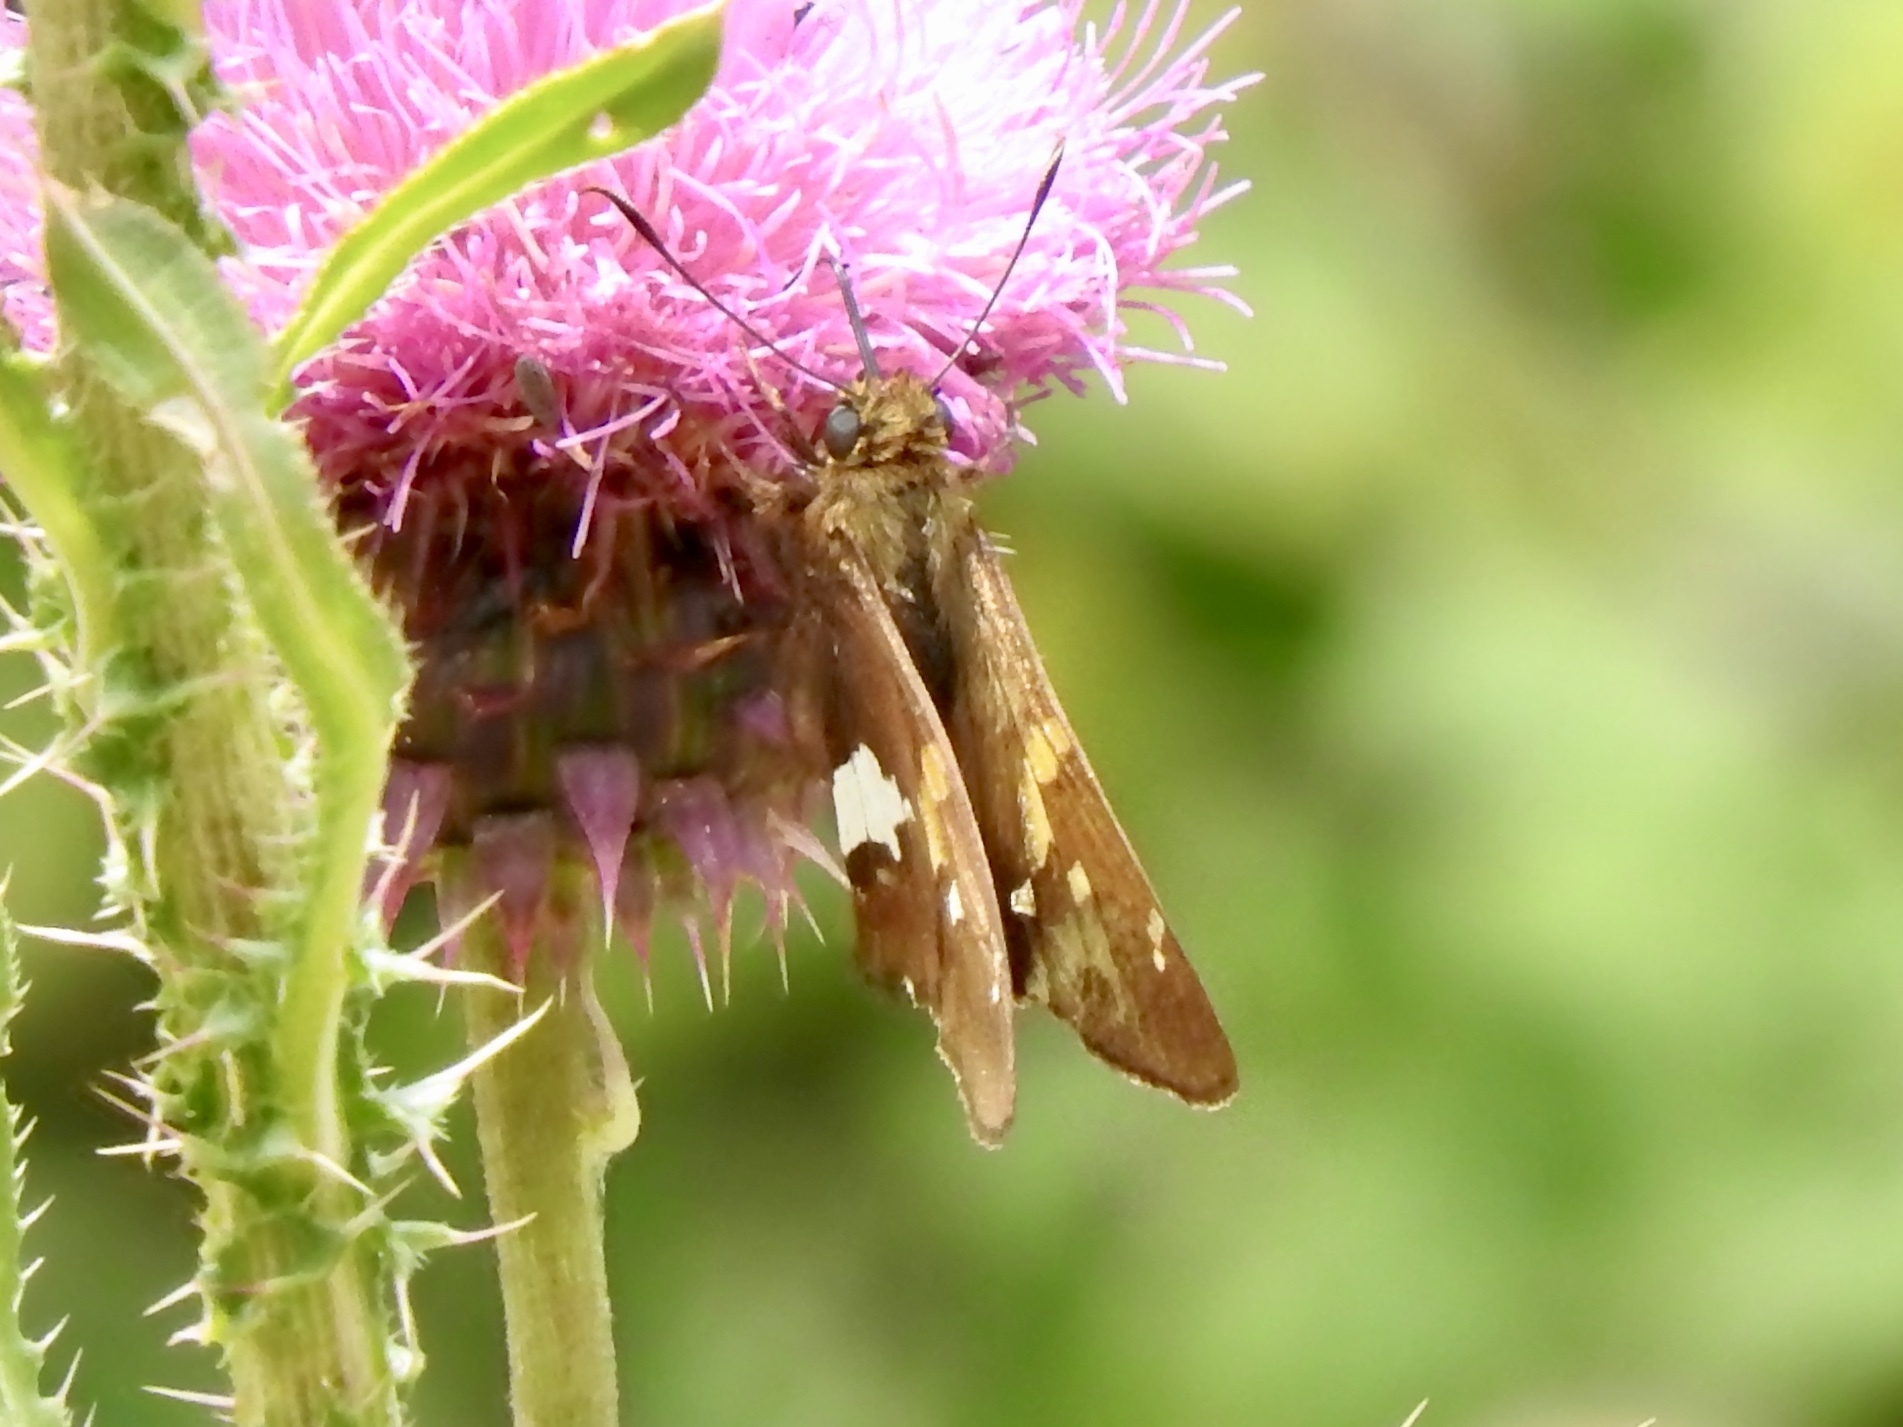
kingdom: Animalia
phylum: Arthropoda
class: Insecta
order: Lepidoptera
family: Hesperiidae
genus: Epargyreus
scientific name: Epargyreus clarus
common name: Silver-spotted skipper
